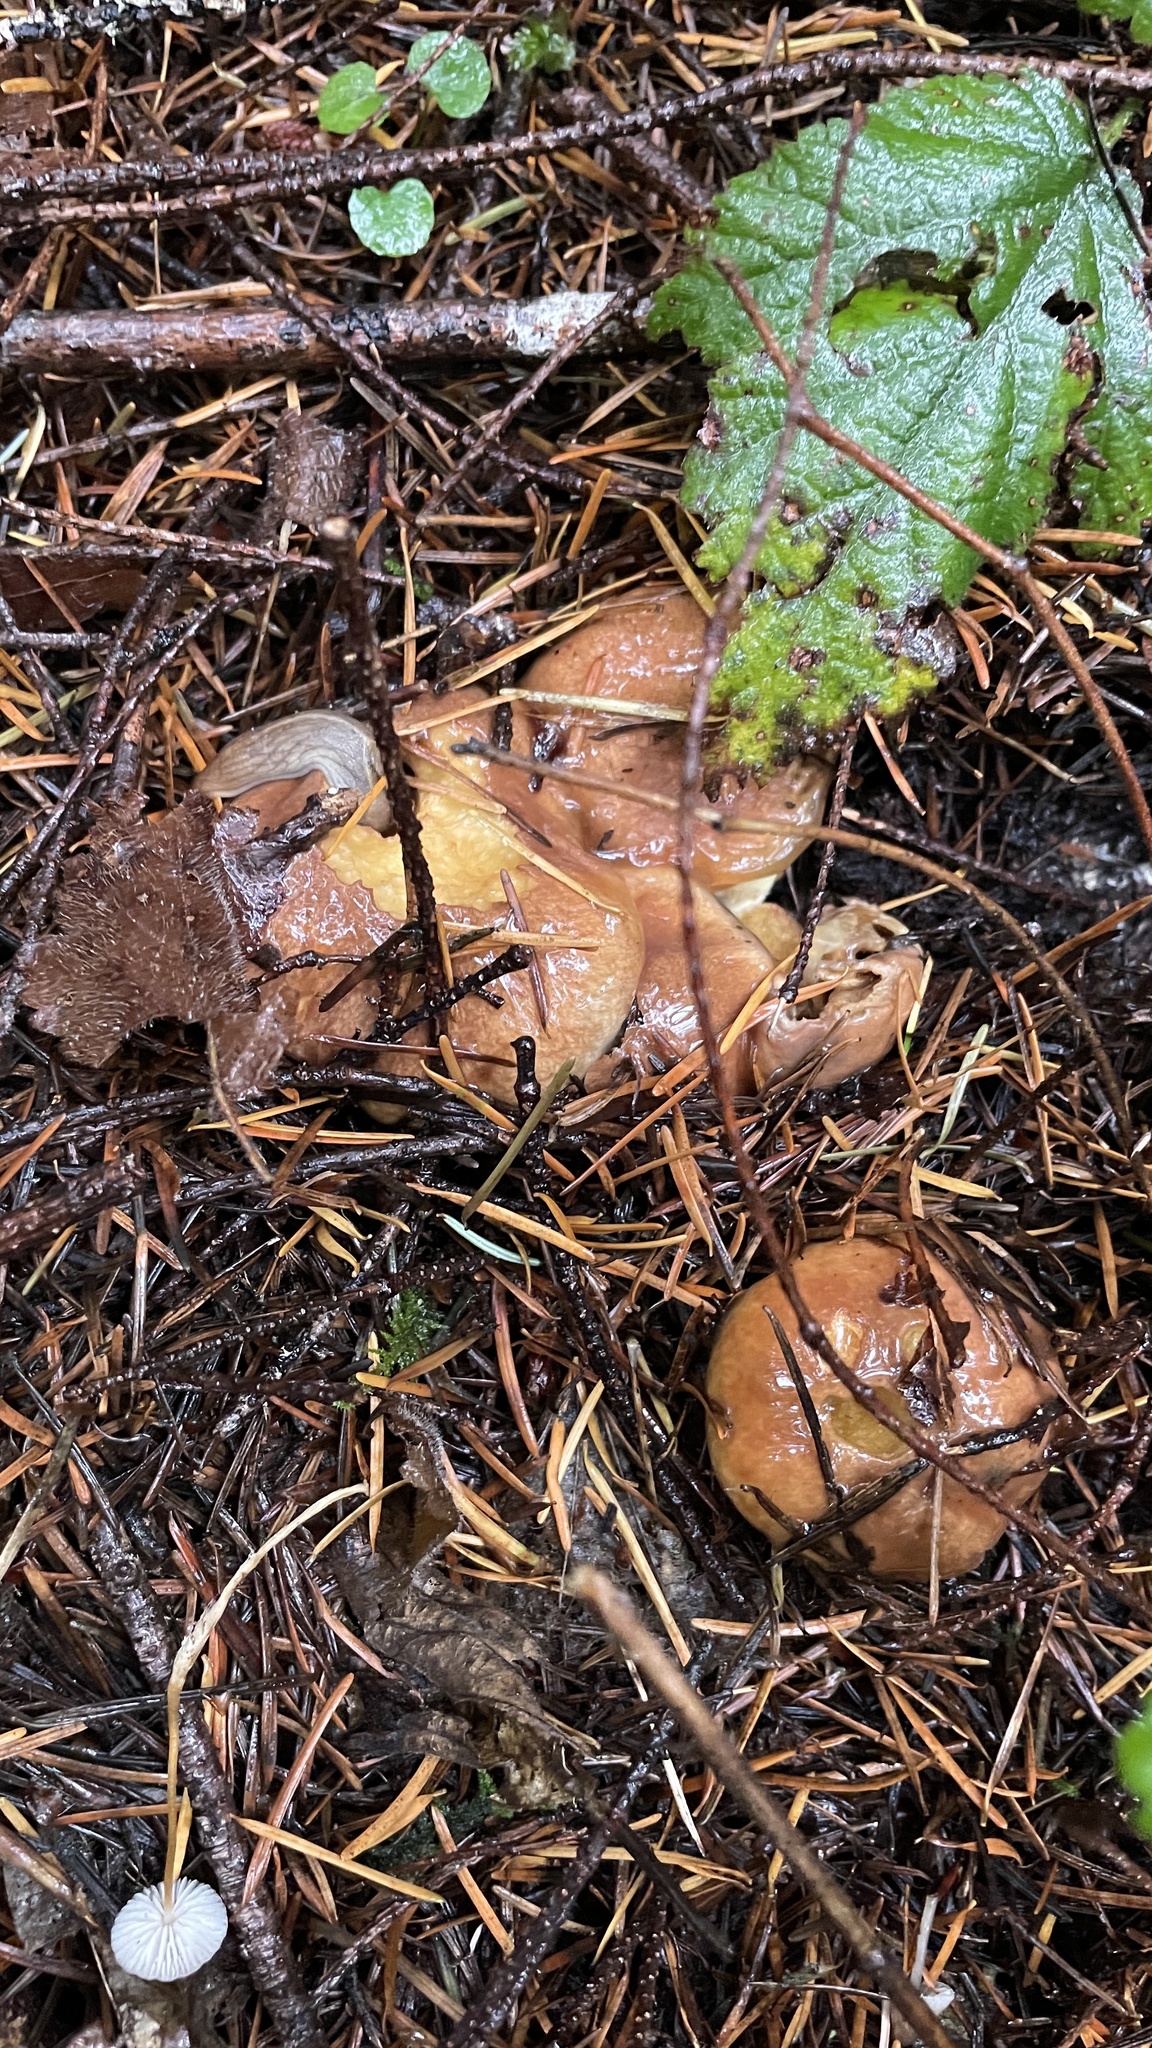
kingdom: Fungi
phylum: Basidiomycota
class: Agaricomycetes
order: Boletales
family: Suillaceae
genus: Suillus
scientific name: Suillus ponderosus
